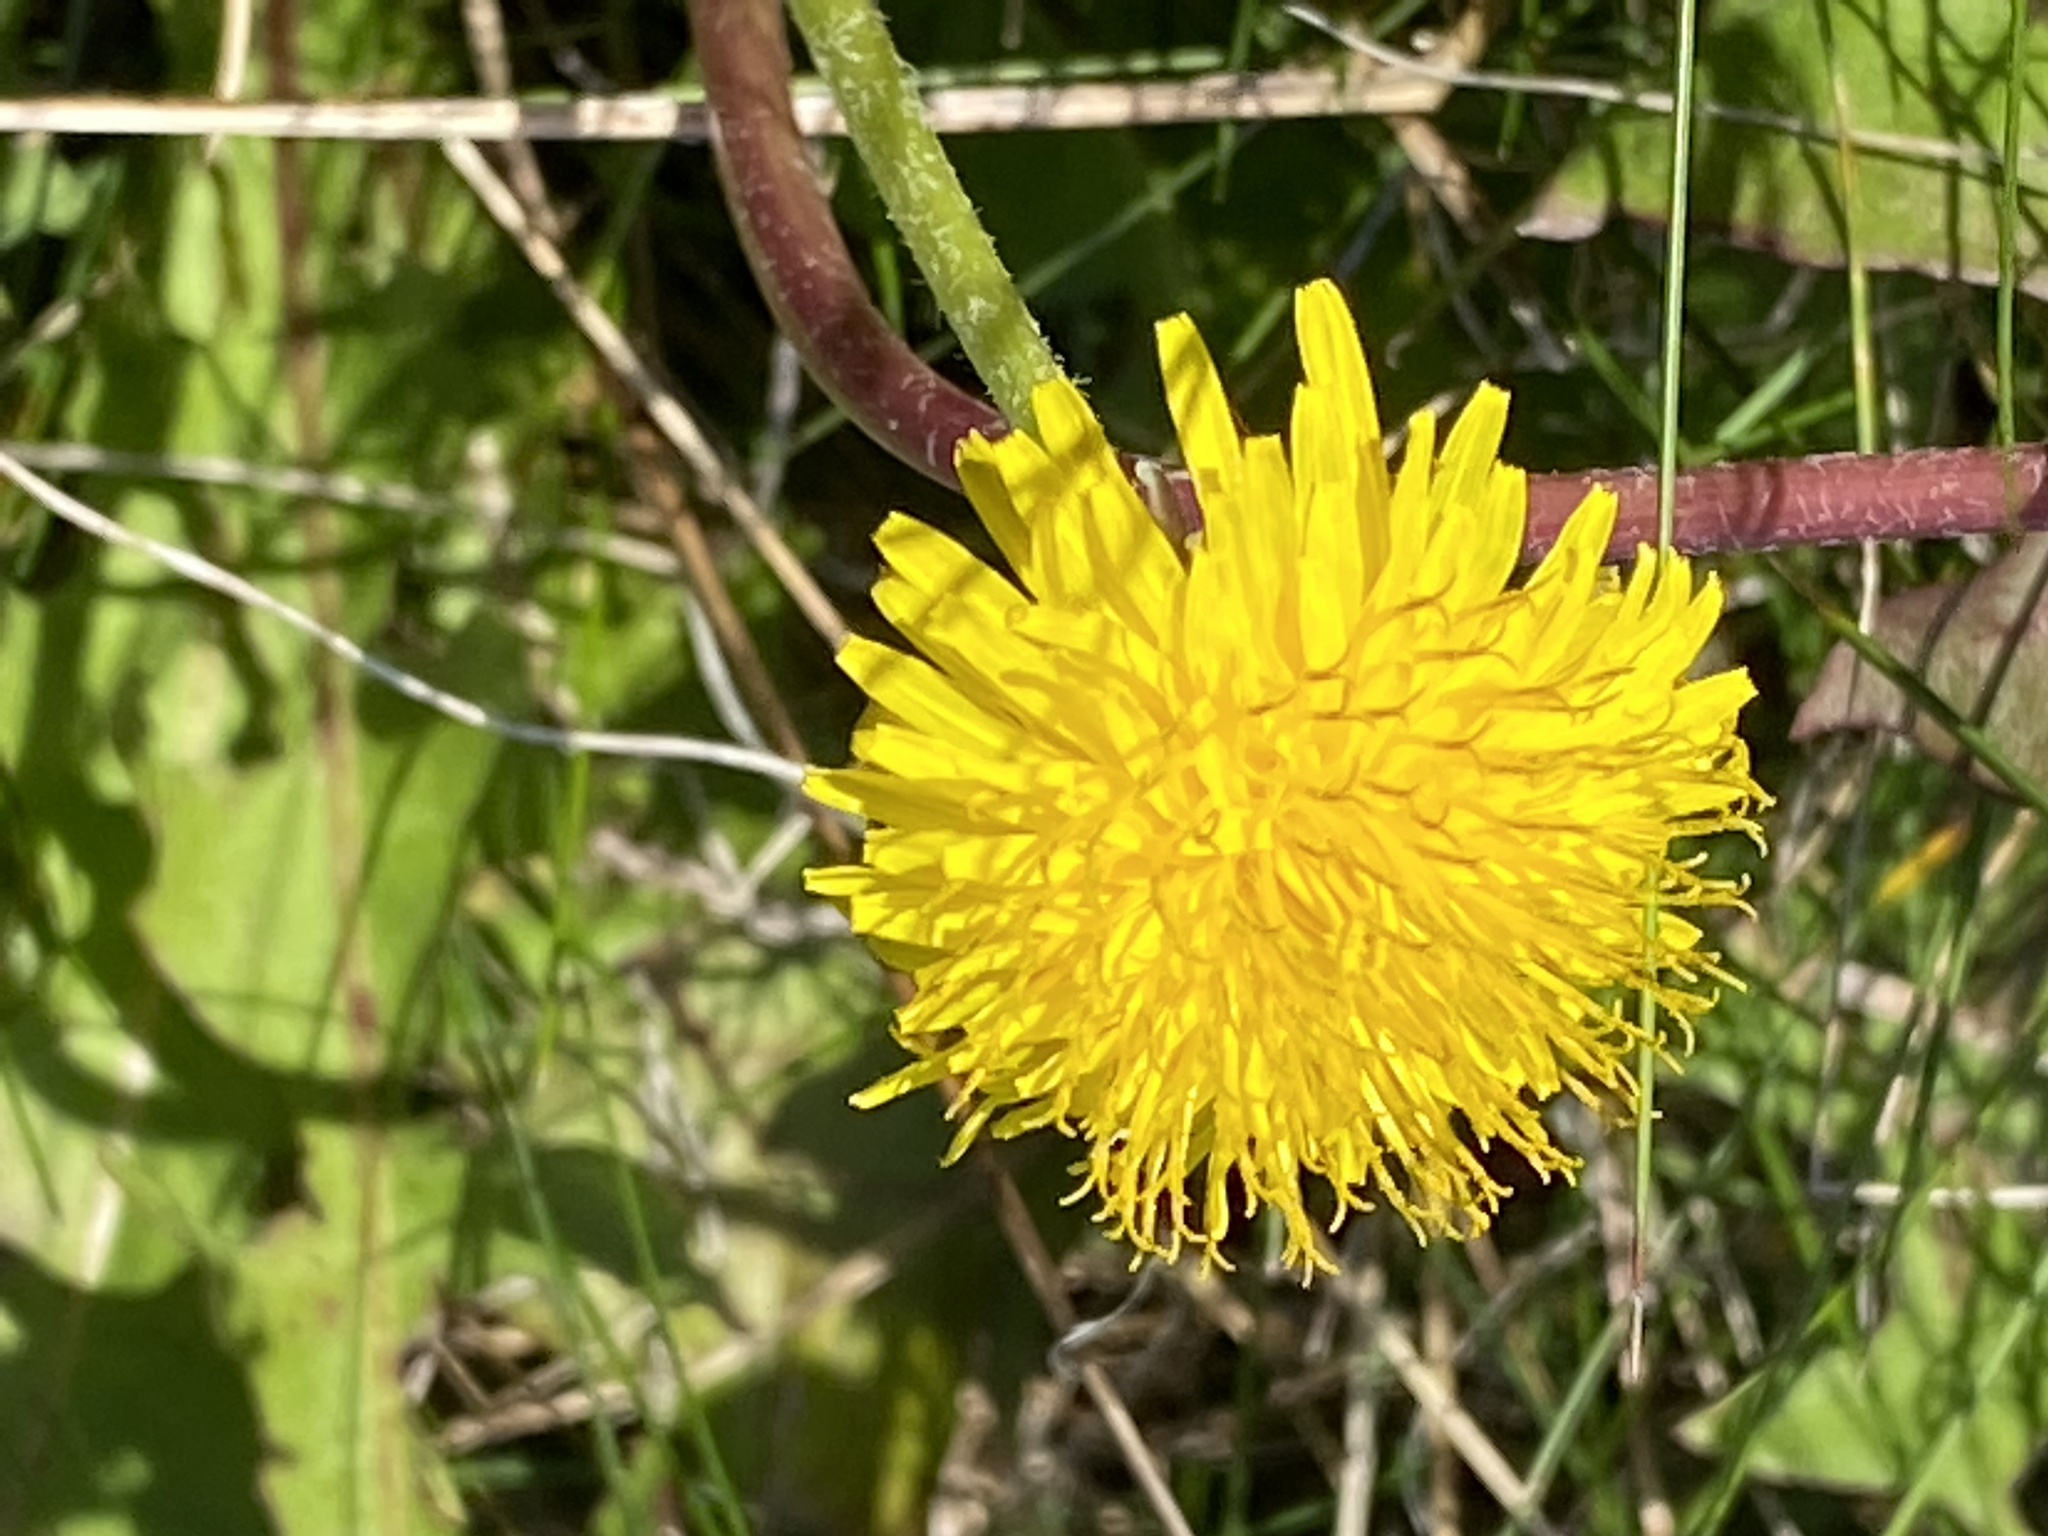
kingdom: Plantae
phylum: Tracheophyta
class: Magnoliopsida
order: Asterales
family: Asteraceae
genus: Taraxacum
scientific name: Taraxacum officinale
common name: Common dandelion
